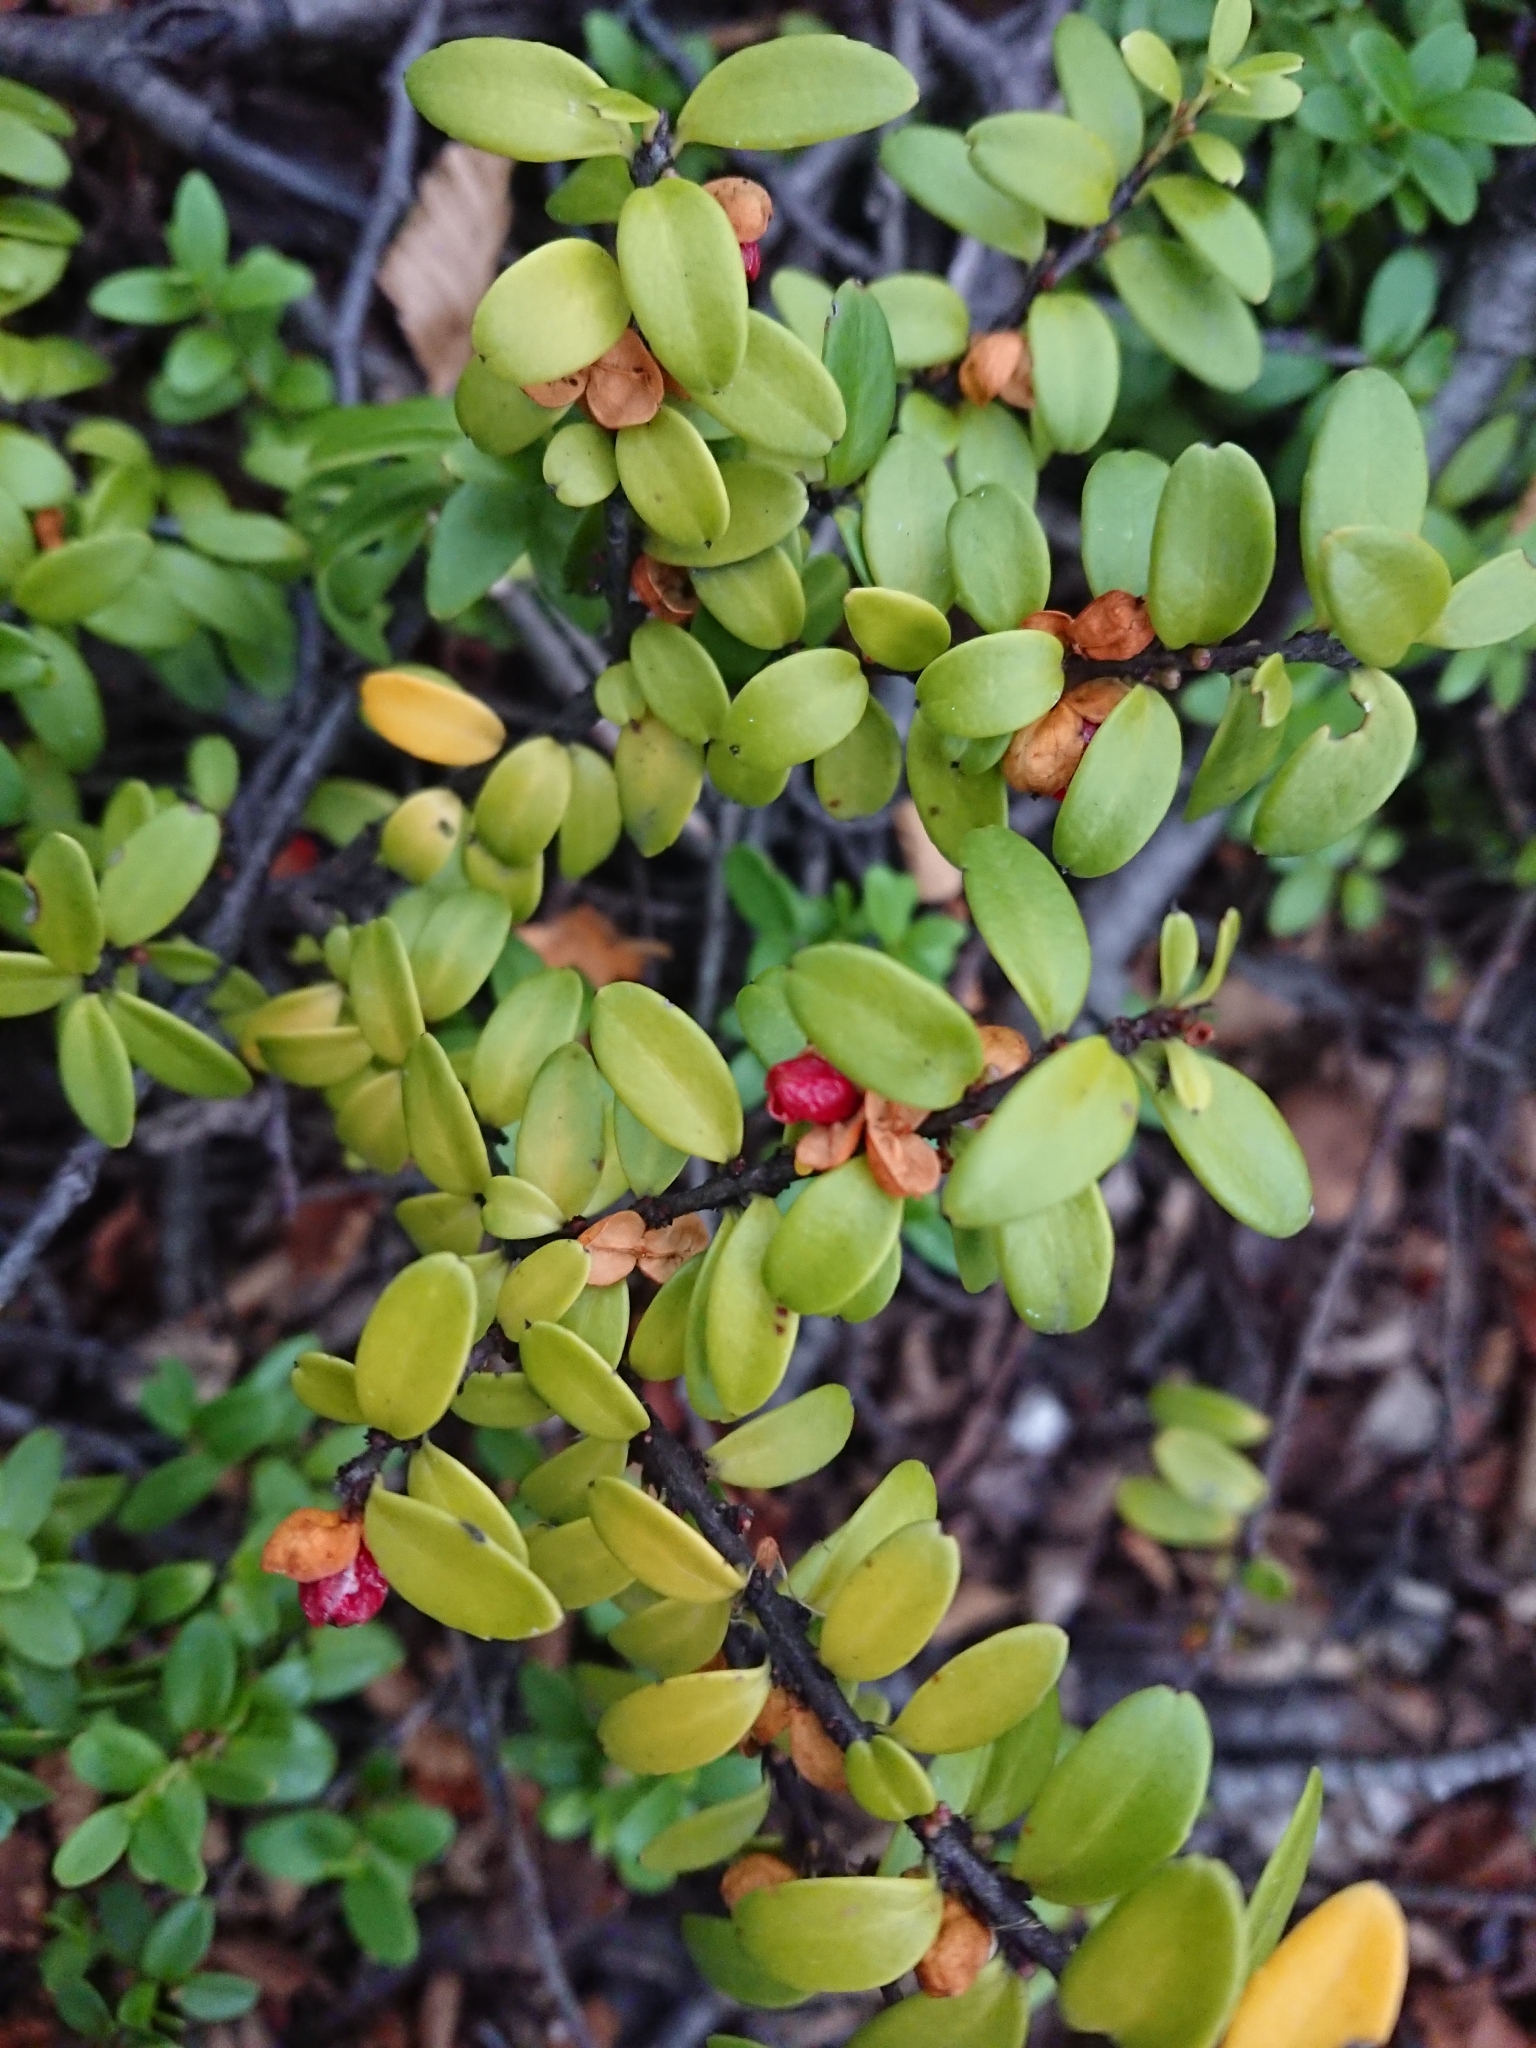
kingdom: Plantae
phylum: Tracheophyta
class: Magnoliopsida
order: Celastrales
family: Celastraceae
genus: Maytenus
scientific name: Maytenus disticha
